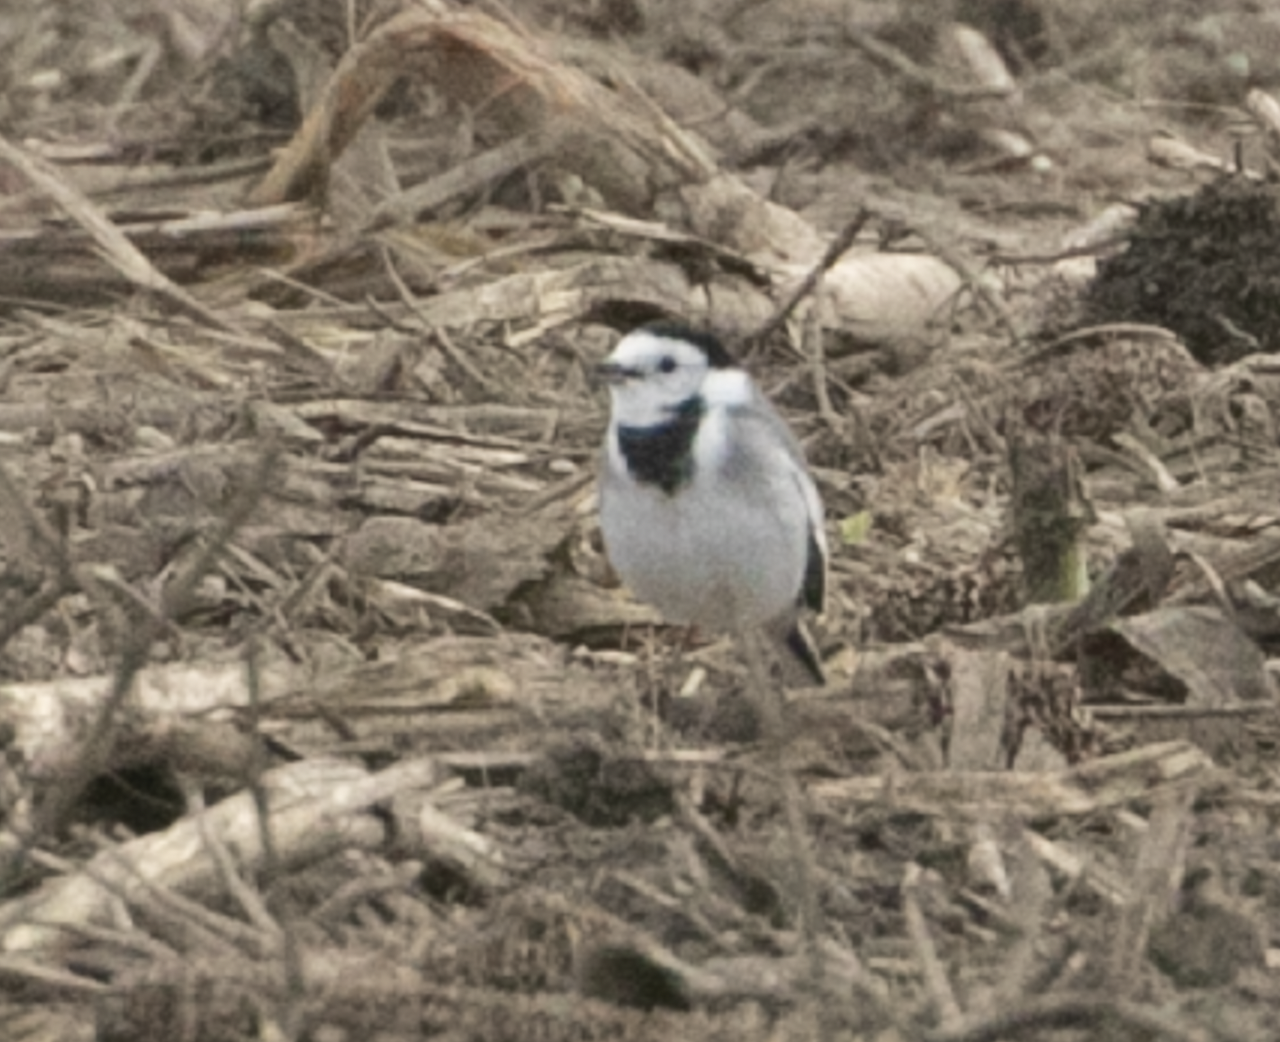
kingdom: Animalia
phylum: Chordata
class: Aves
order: Passeriformes
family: Motacillidae
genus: Motacilla
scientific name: Motacilla alba
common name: White wagtail
